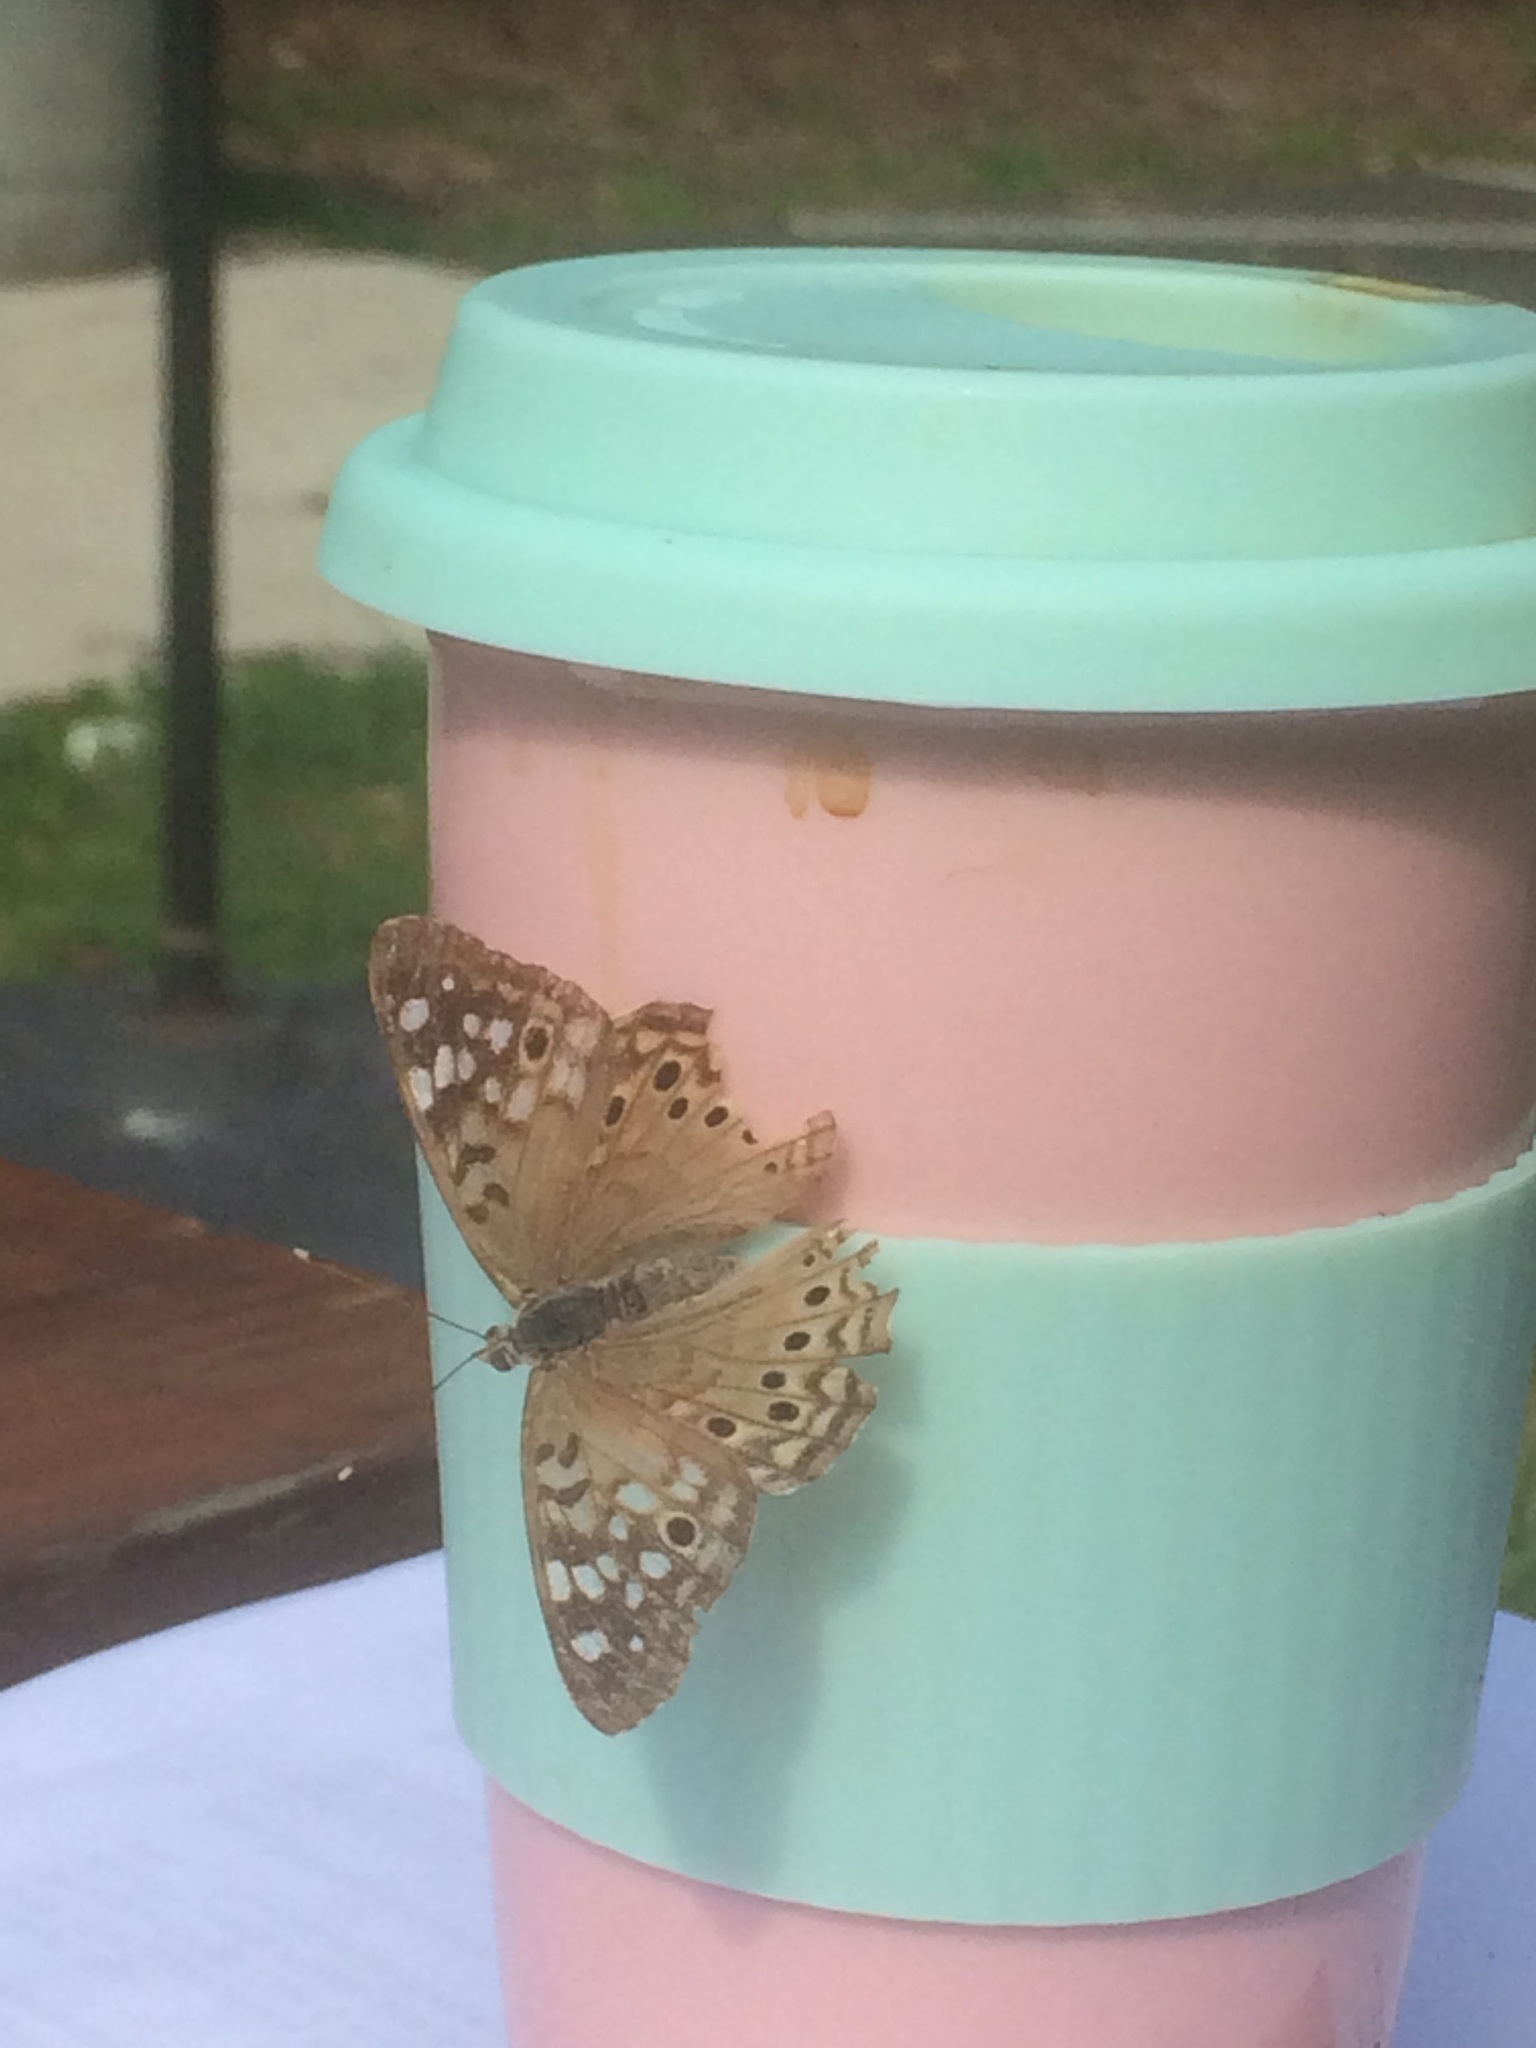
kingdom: Animalia
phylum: Arthropoda
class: Insecta
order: Lepidoptera
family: Nymphalidae
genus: Asterocampa
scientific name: Asterocampa celtis
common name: Hackberry emperor
